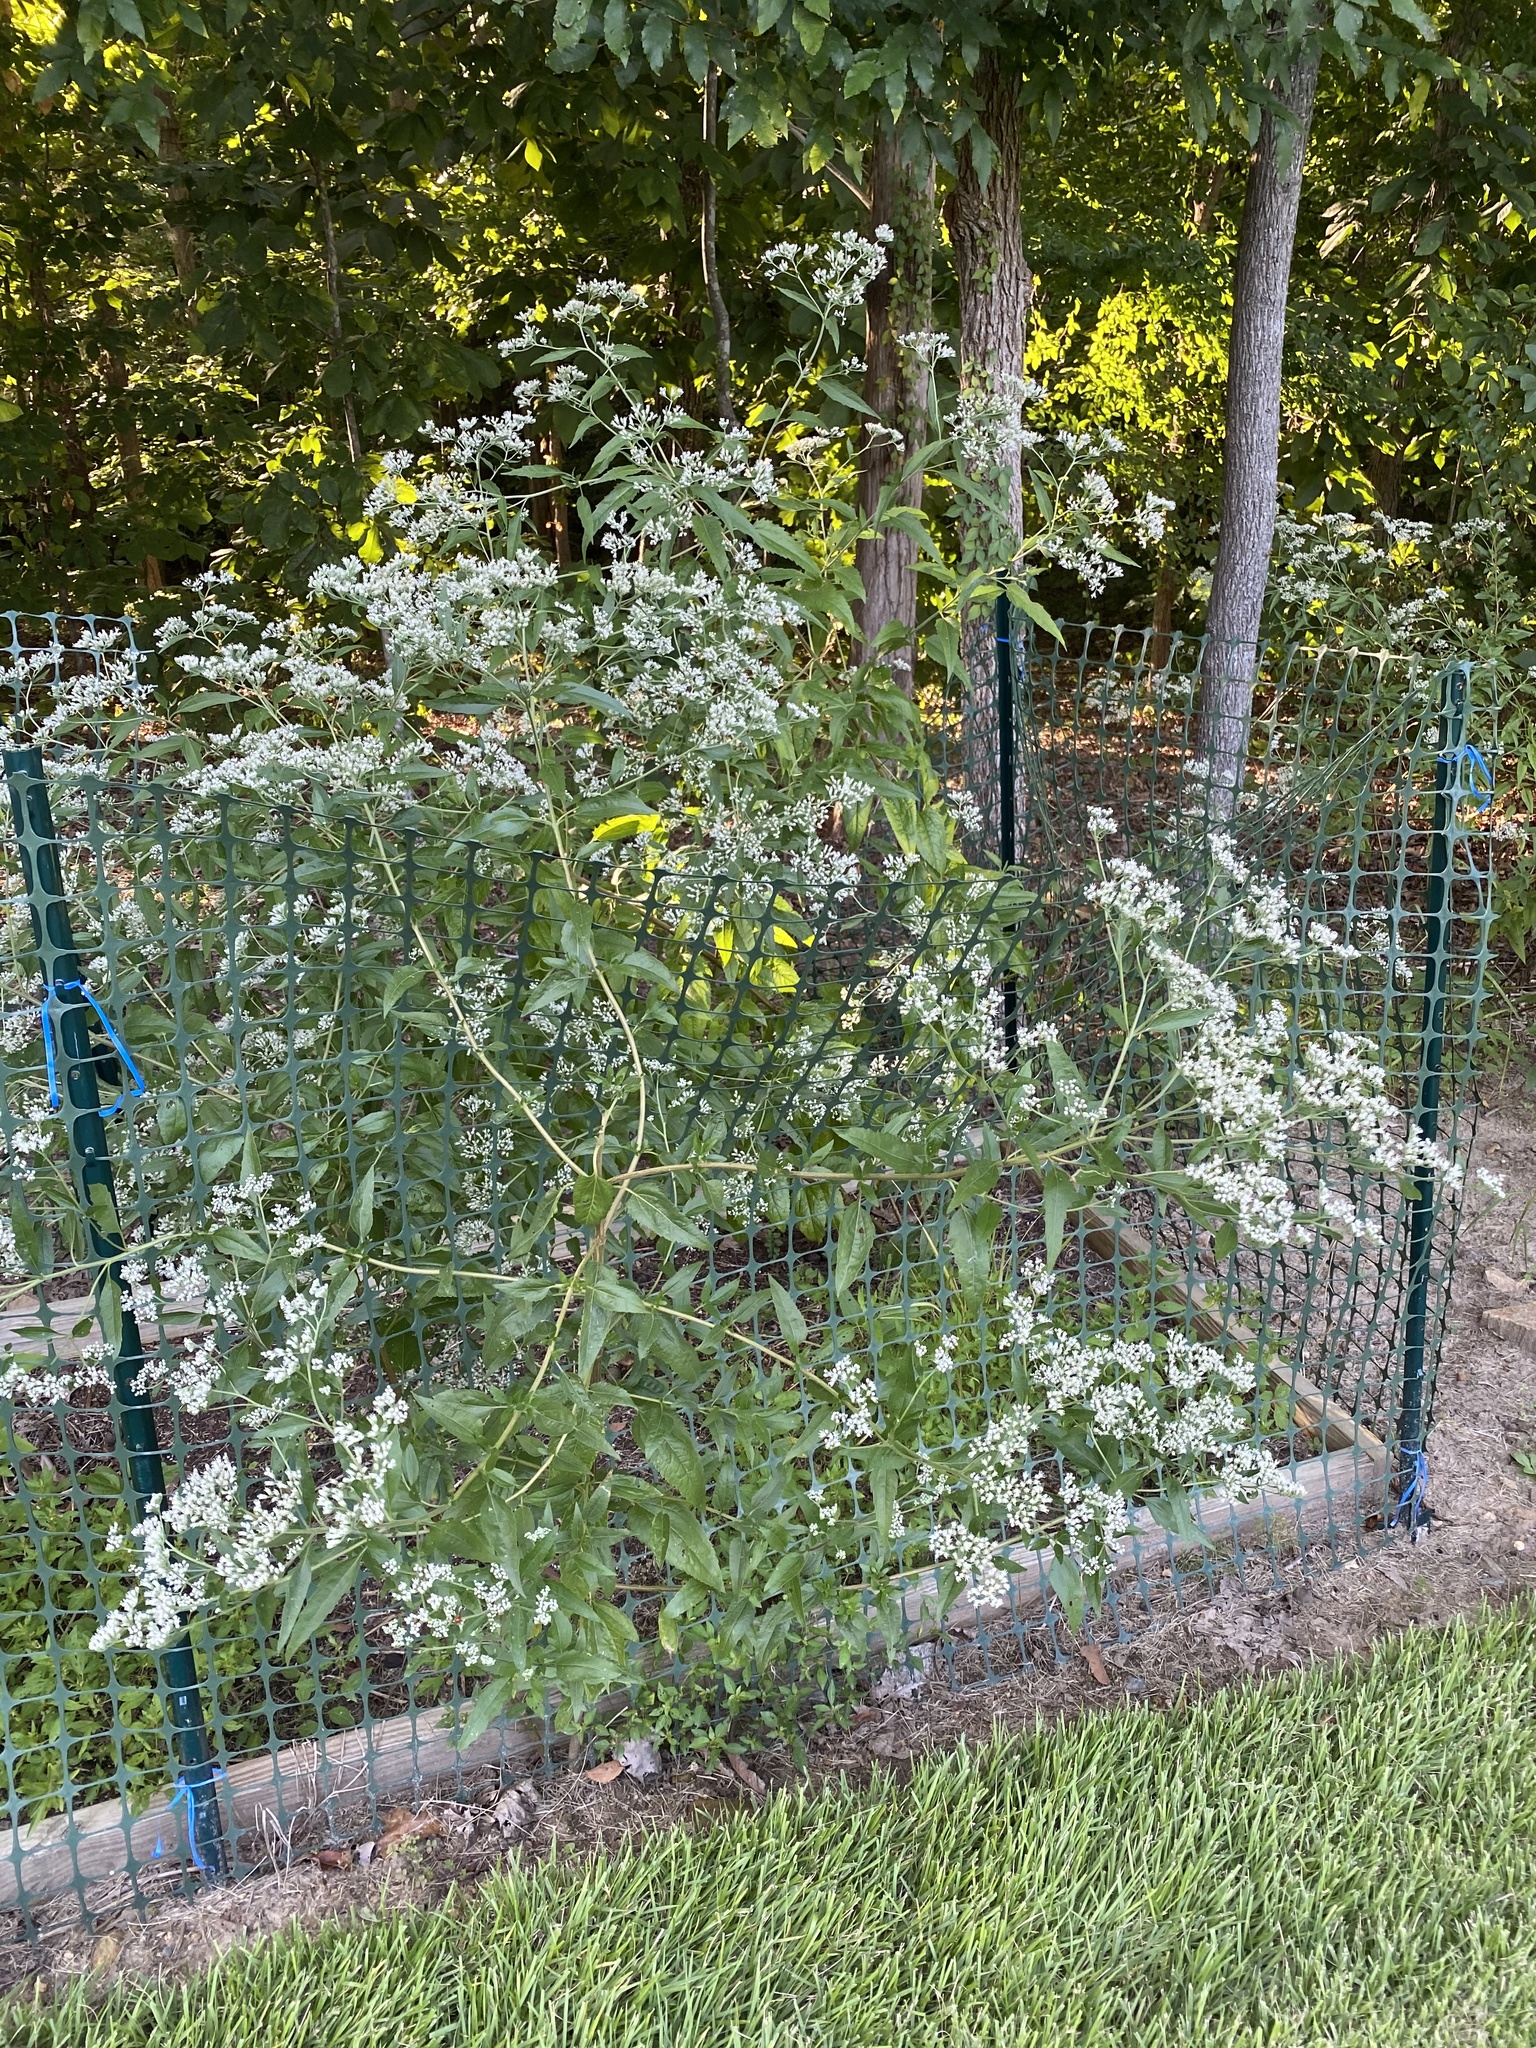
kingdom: Plantae
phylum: Tracheophyta
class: Magnoliopsida
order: Asterales
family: Asteraceae
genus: Eupatorium
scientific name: Eupatorium serotinum
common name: Late boneset
